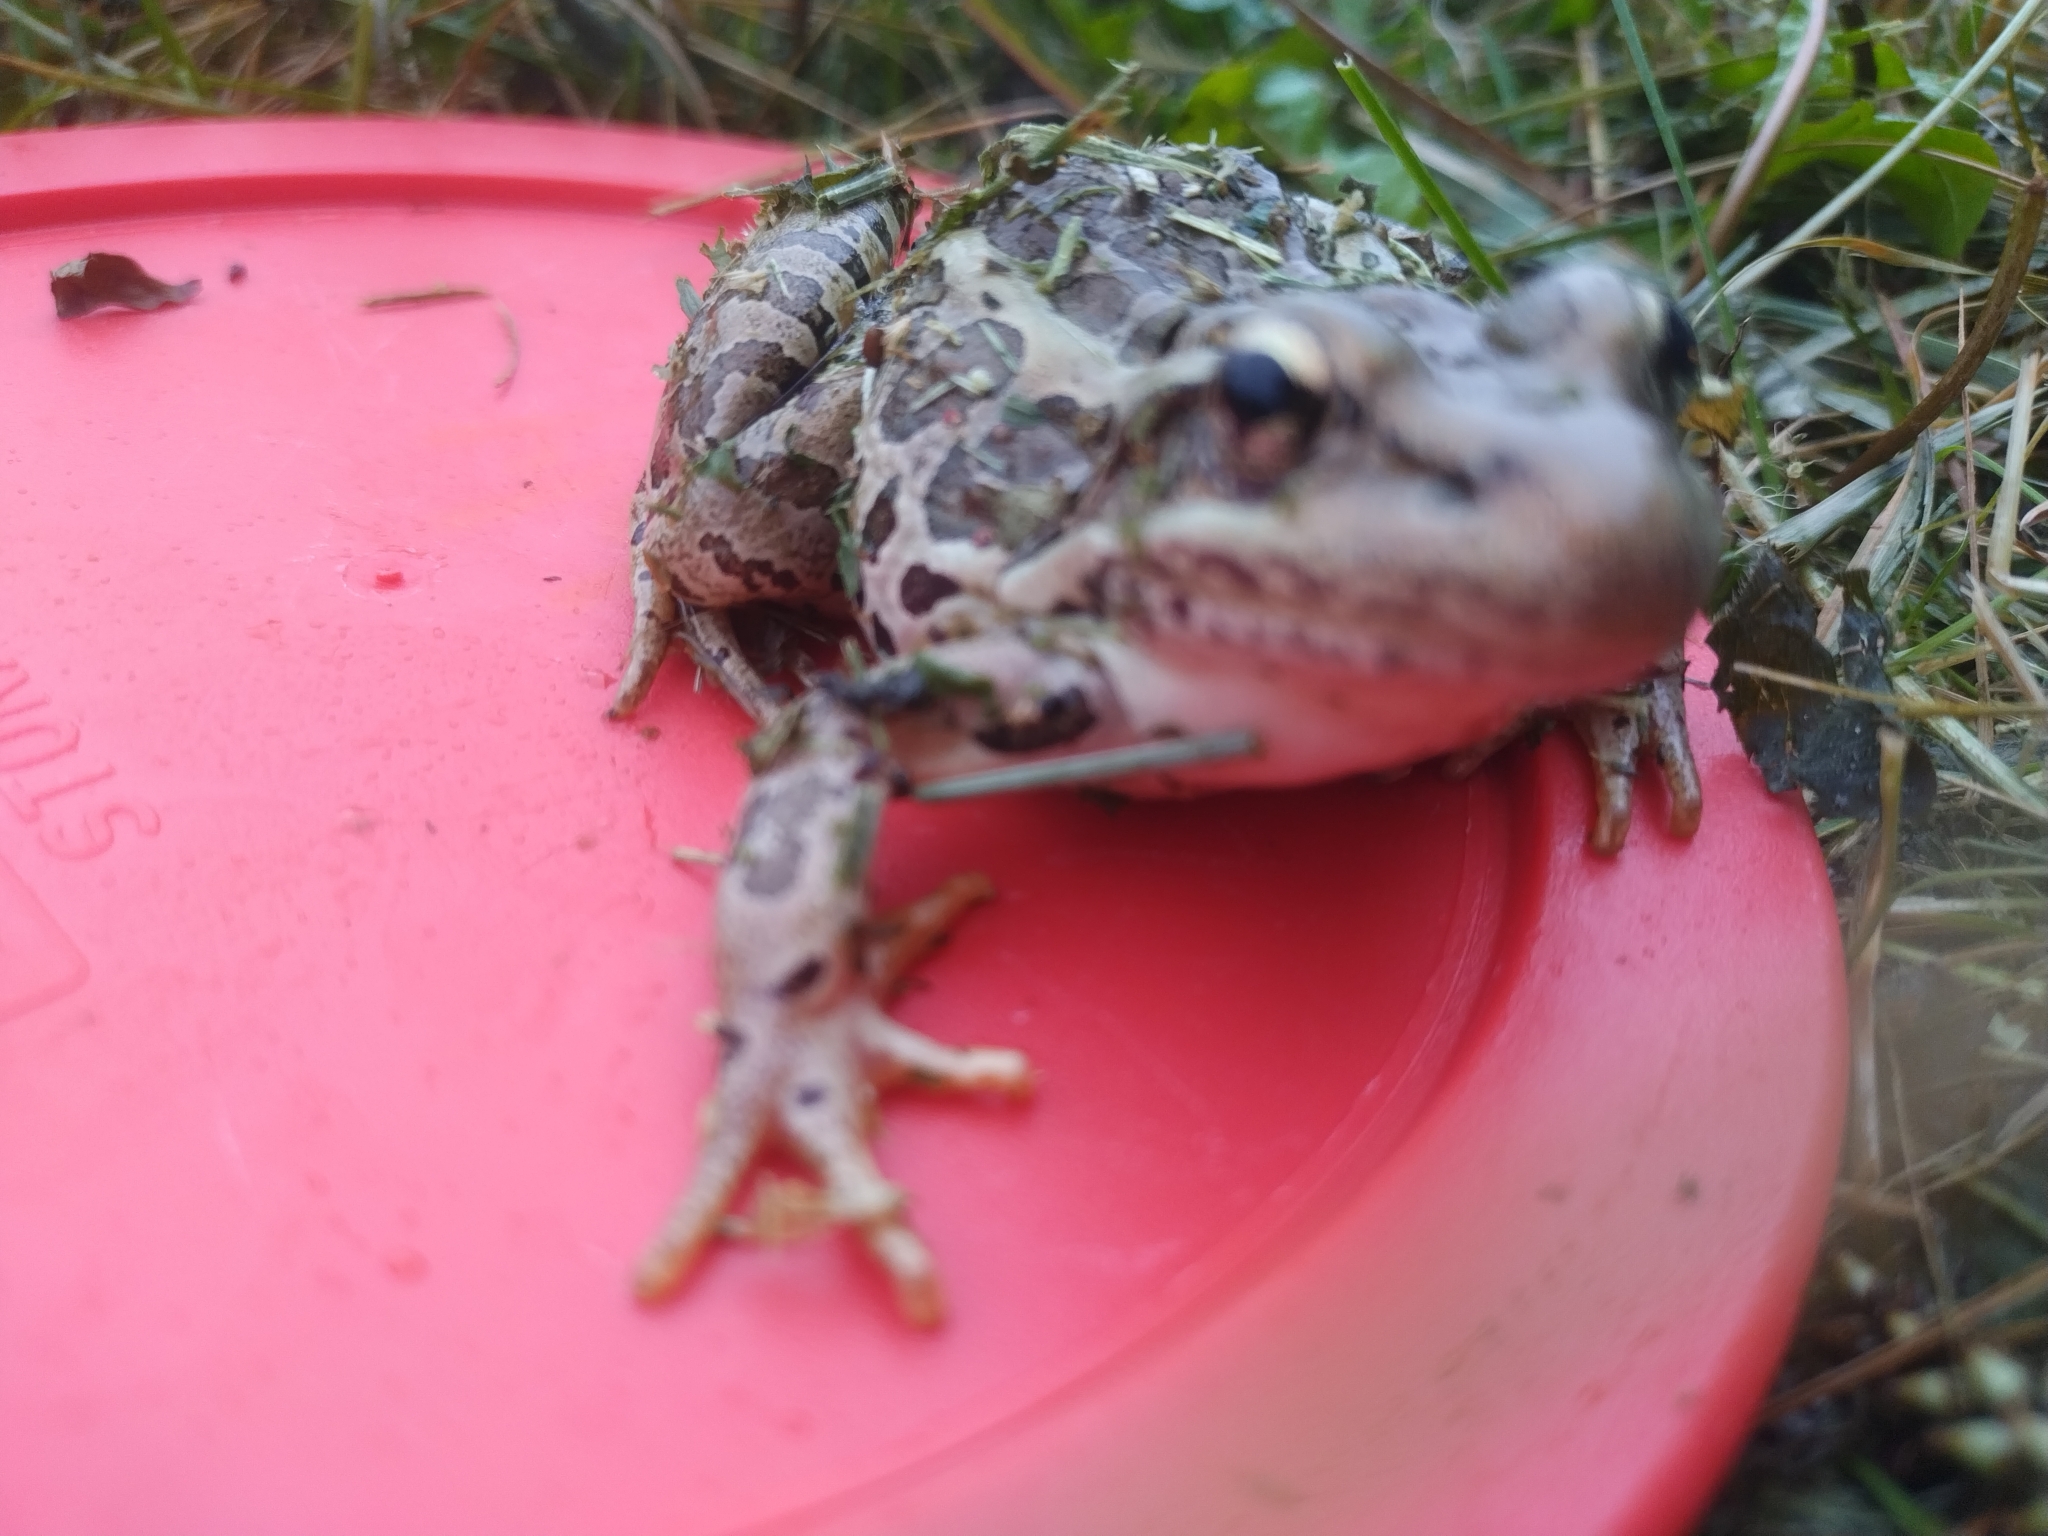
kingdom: Animalia
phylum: Chordata
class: Amphibia
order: Anura
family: Ranidae
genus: Lithobates
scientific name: Lithobates palustris
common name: Pickerel frog
